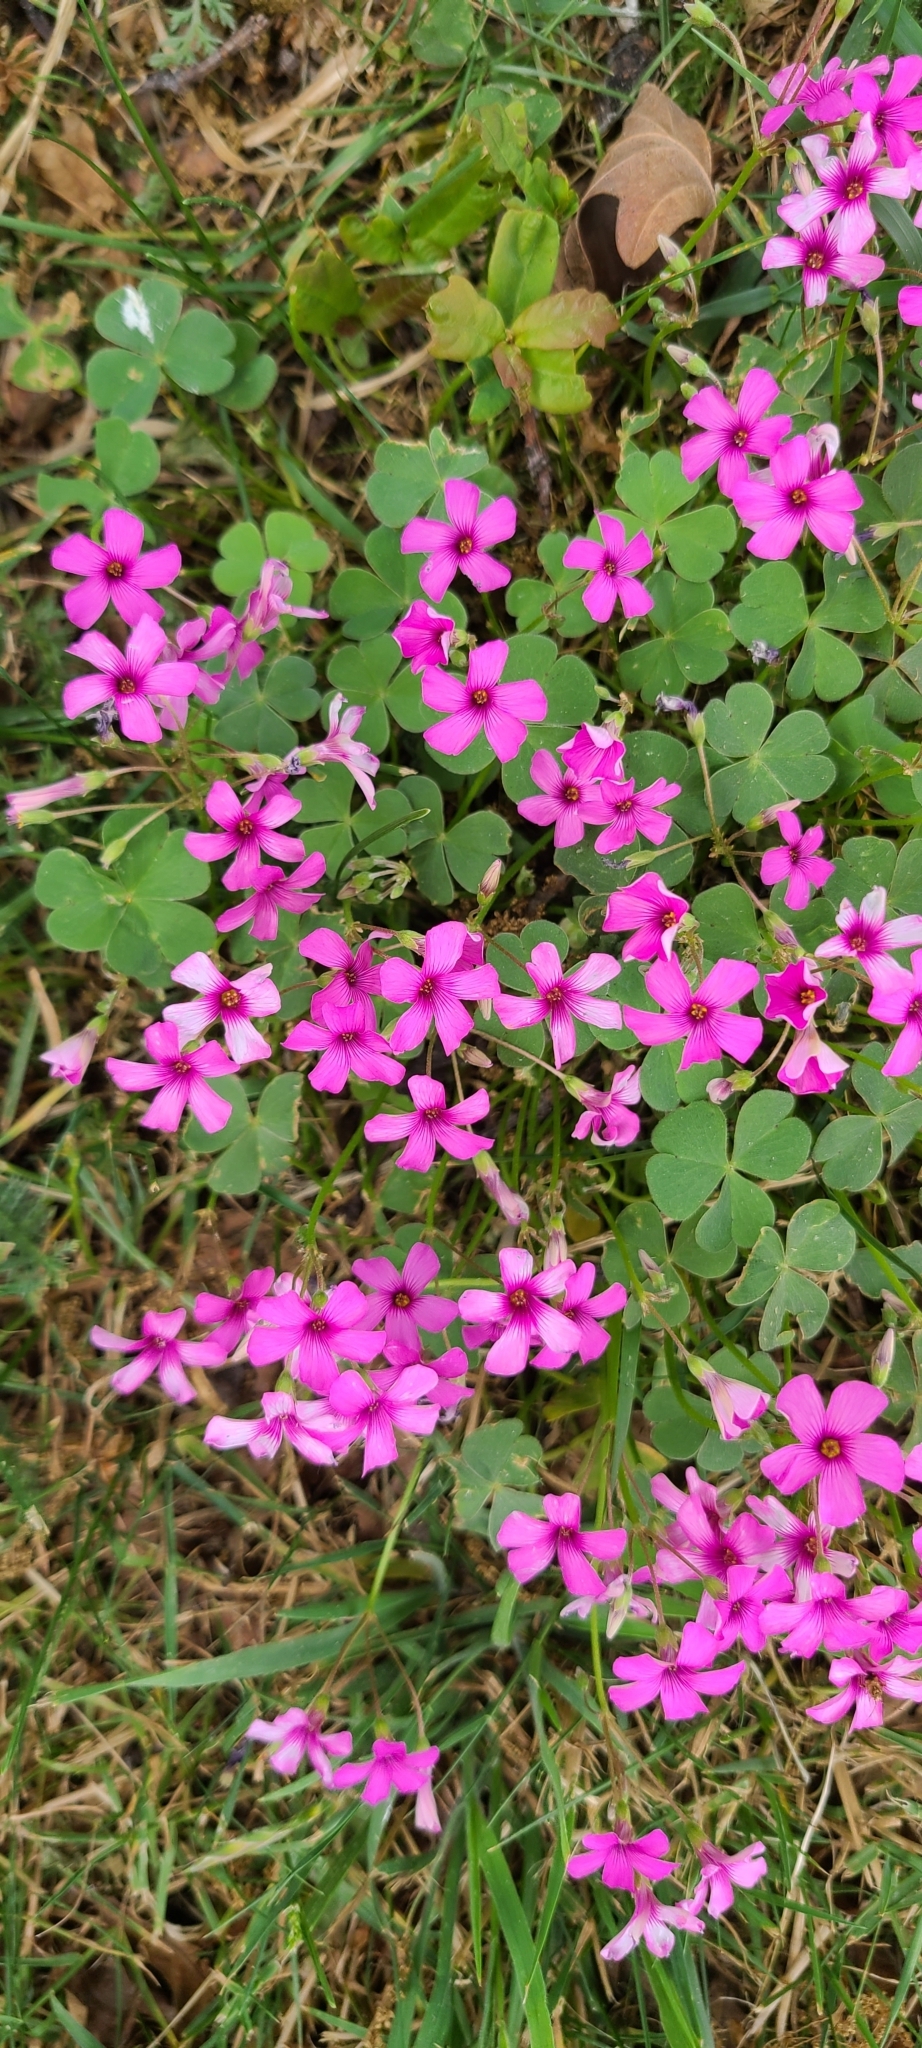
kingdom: Plantae
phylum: Tracheophyta
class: Magnoliopsida
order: Oxalidales
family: Oxalidaceae
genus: Oxalis
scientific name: Oxalis articulata
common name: Pink-sorrel
